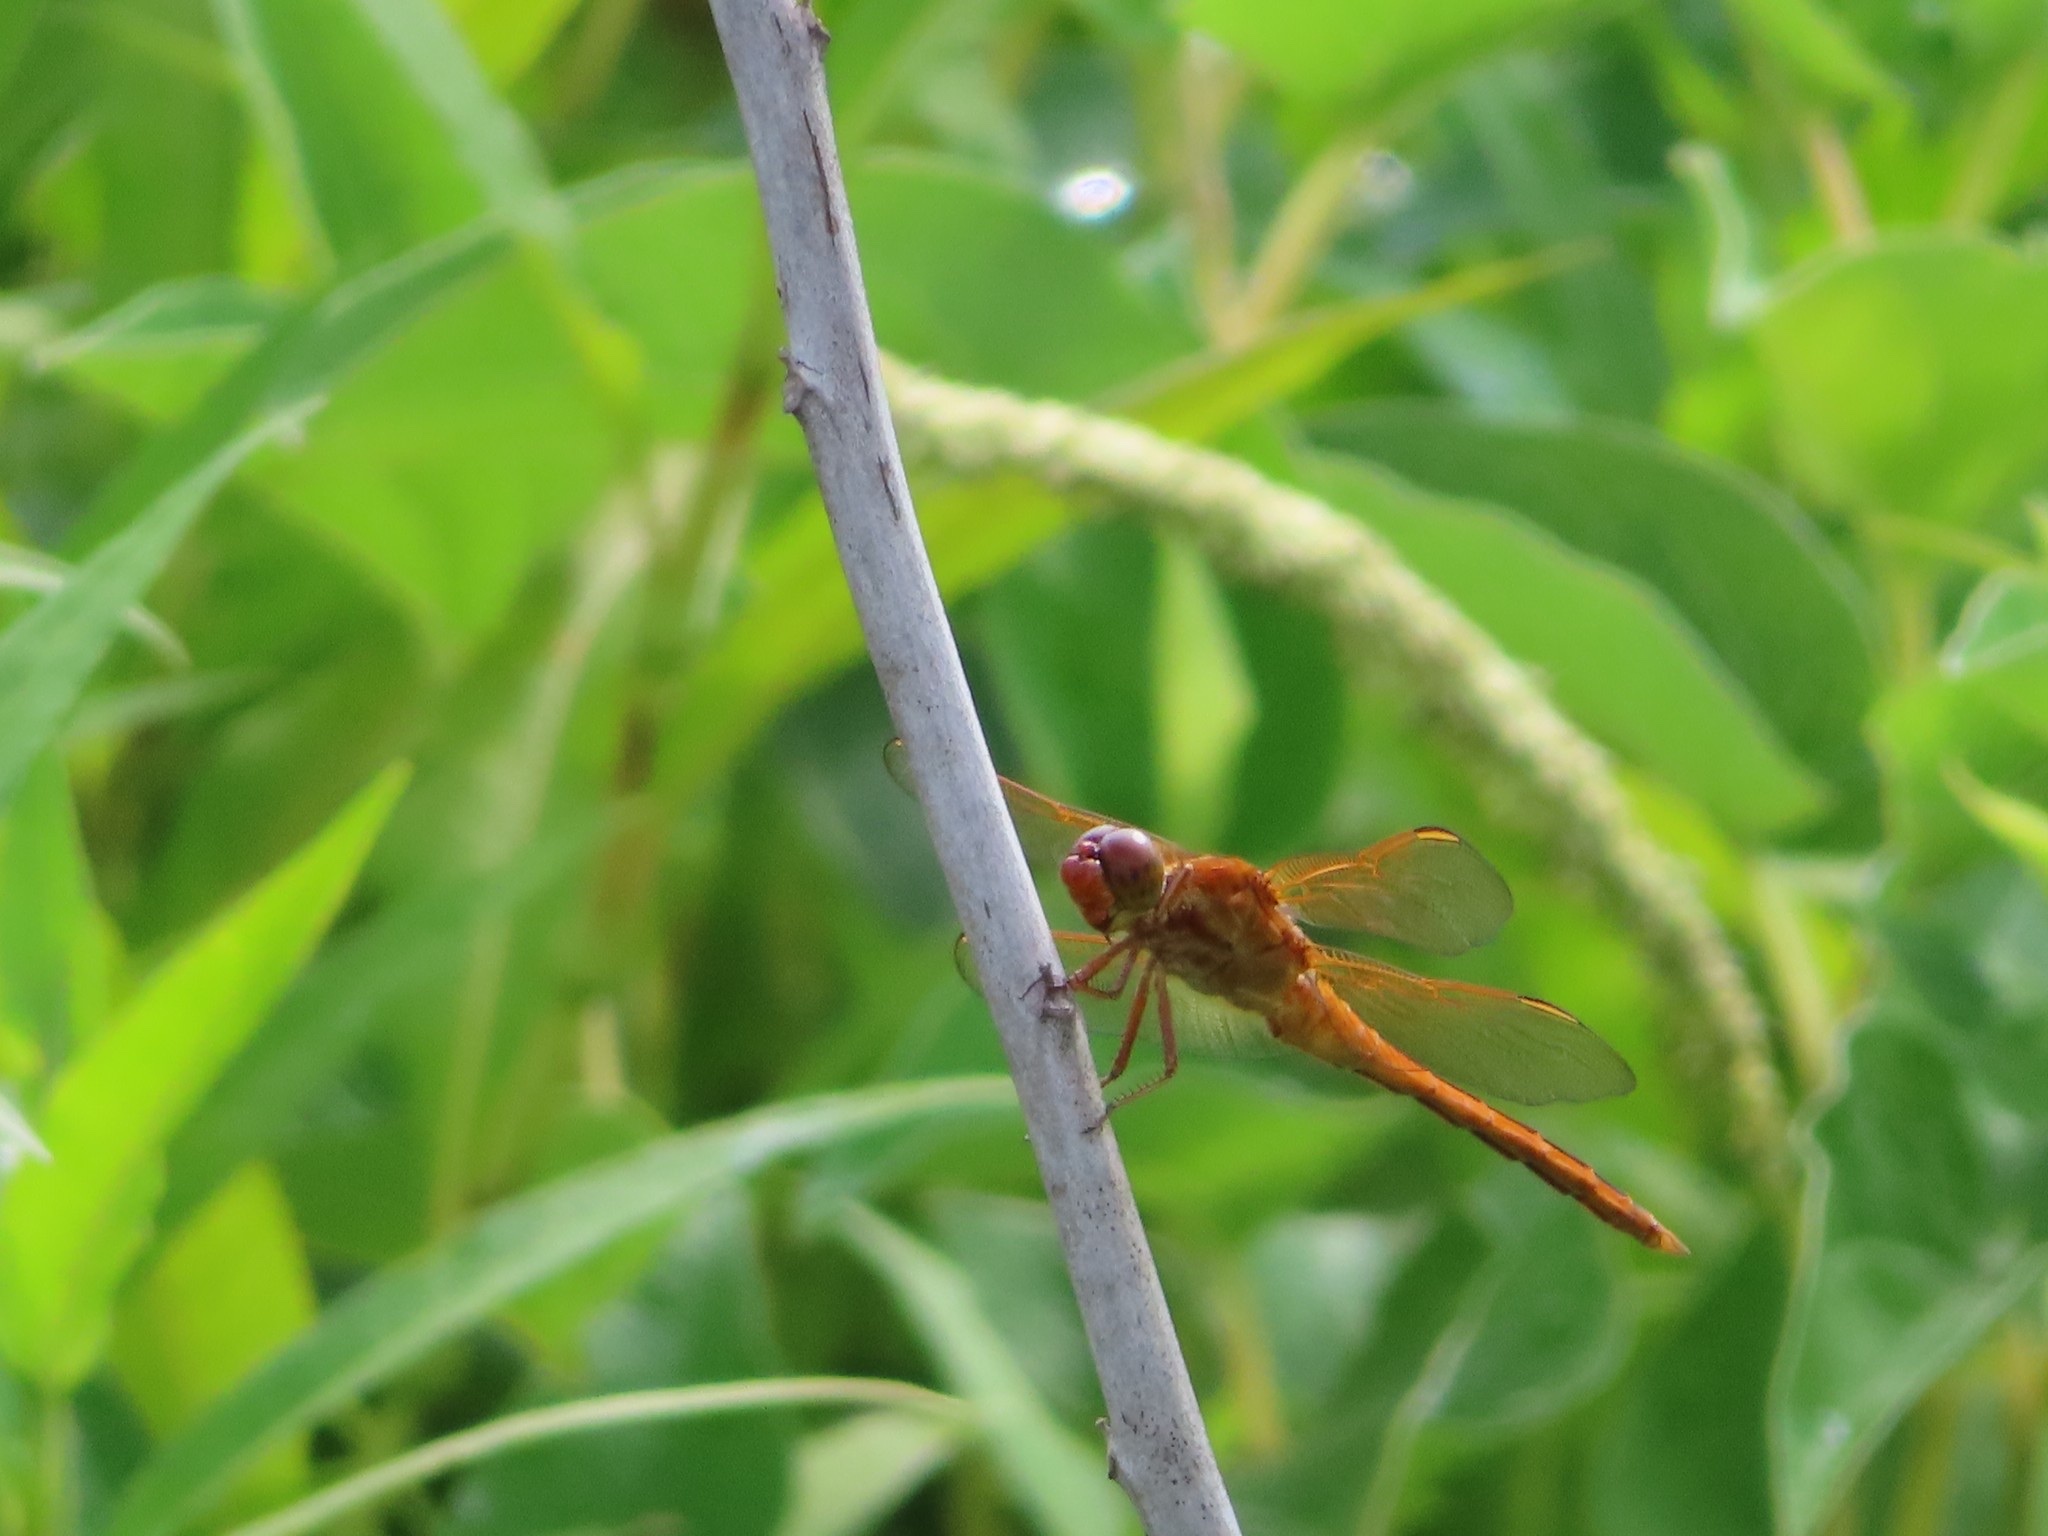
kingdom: Animalia
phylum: Arthropoda
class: Insecta
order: Odonata
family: Libellulidae
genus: Libellula
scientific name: Libellula needhami
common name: Needham's skimmer
